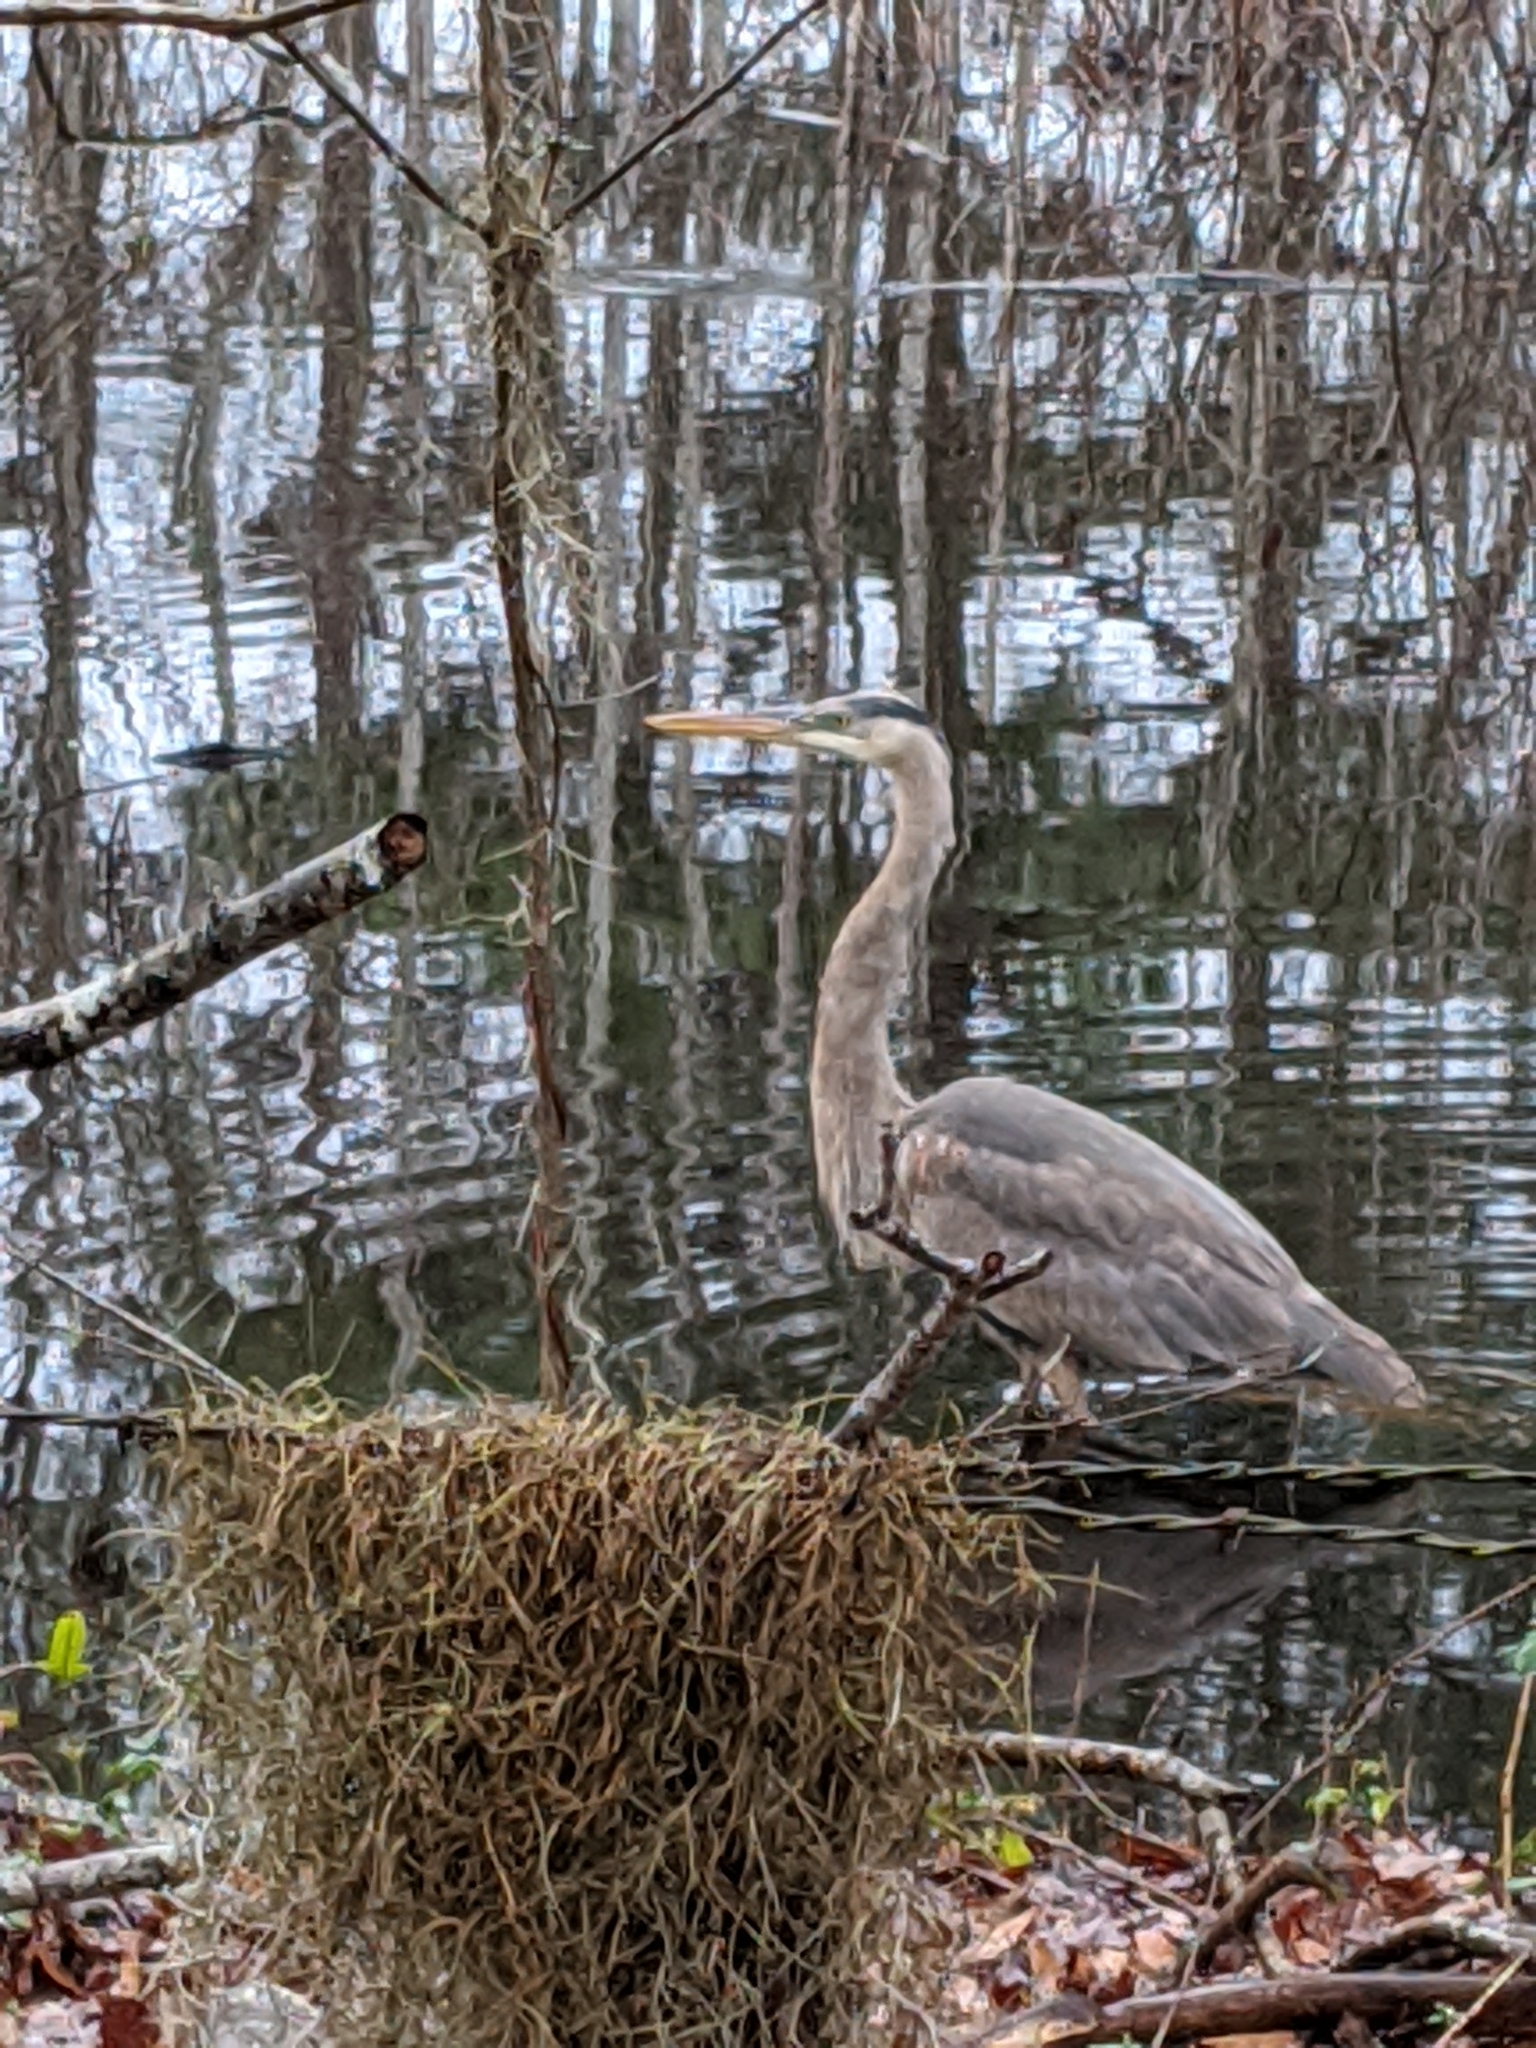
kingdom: Animalia
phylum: Chordata
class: Aves
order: Pelecaniformes
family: Ardeidae
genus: Ardea
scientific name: Ardea herodias
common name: Great blue heron
